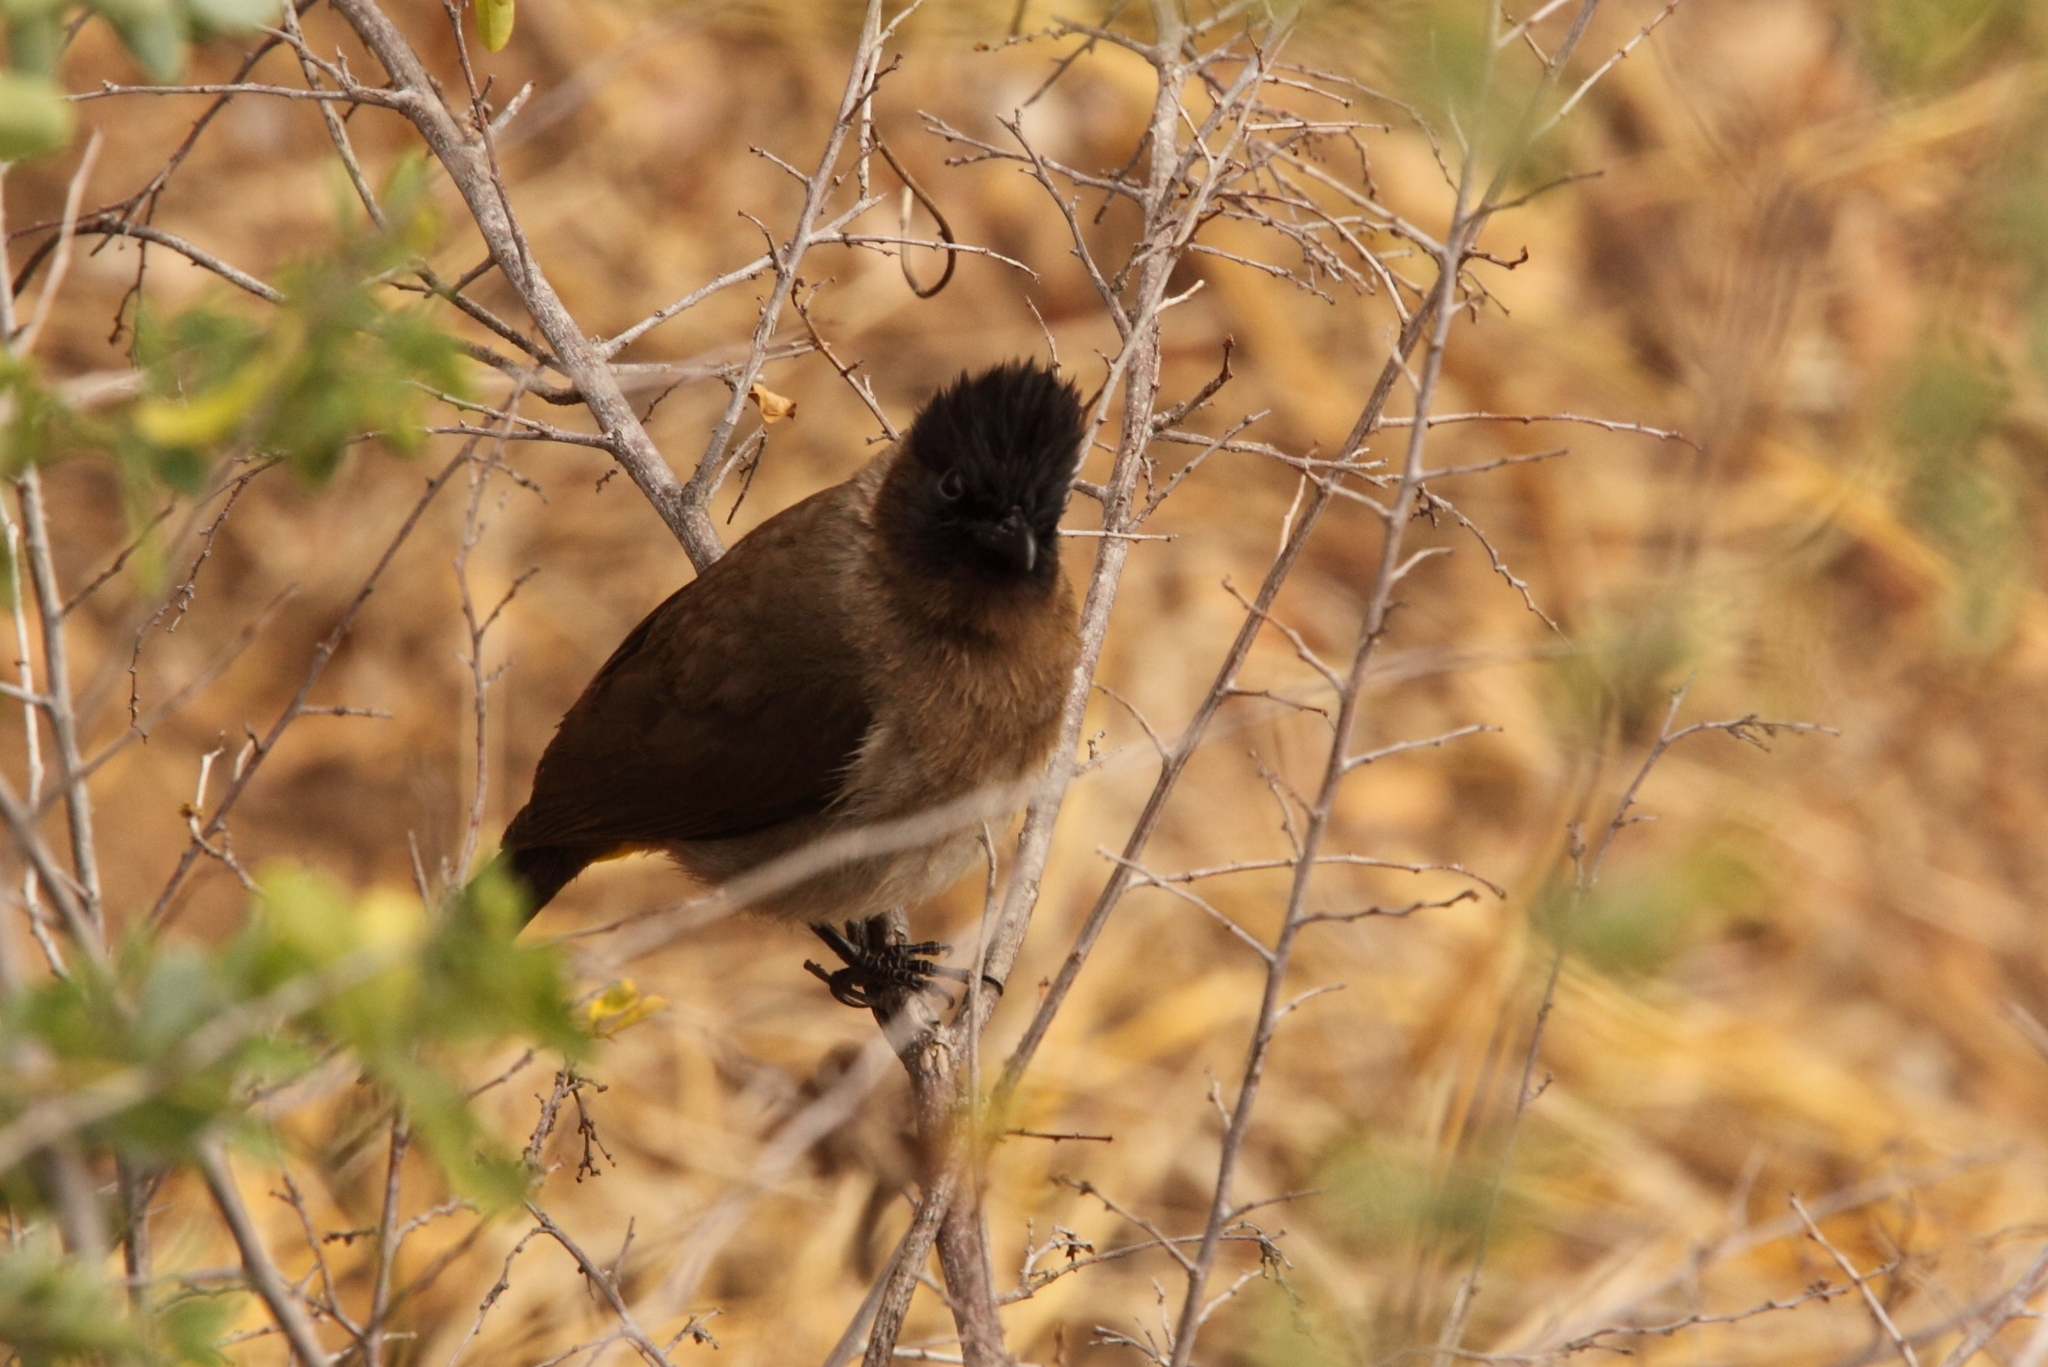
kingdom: Animalia
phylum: Chordata
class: Aves
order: Passeriformes
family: Pycnonotidae
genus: Pycnonotus
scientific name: Pycnonotus barbatus
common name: Common bulbul
